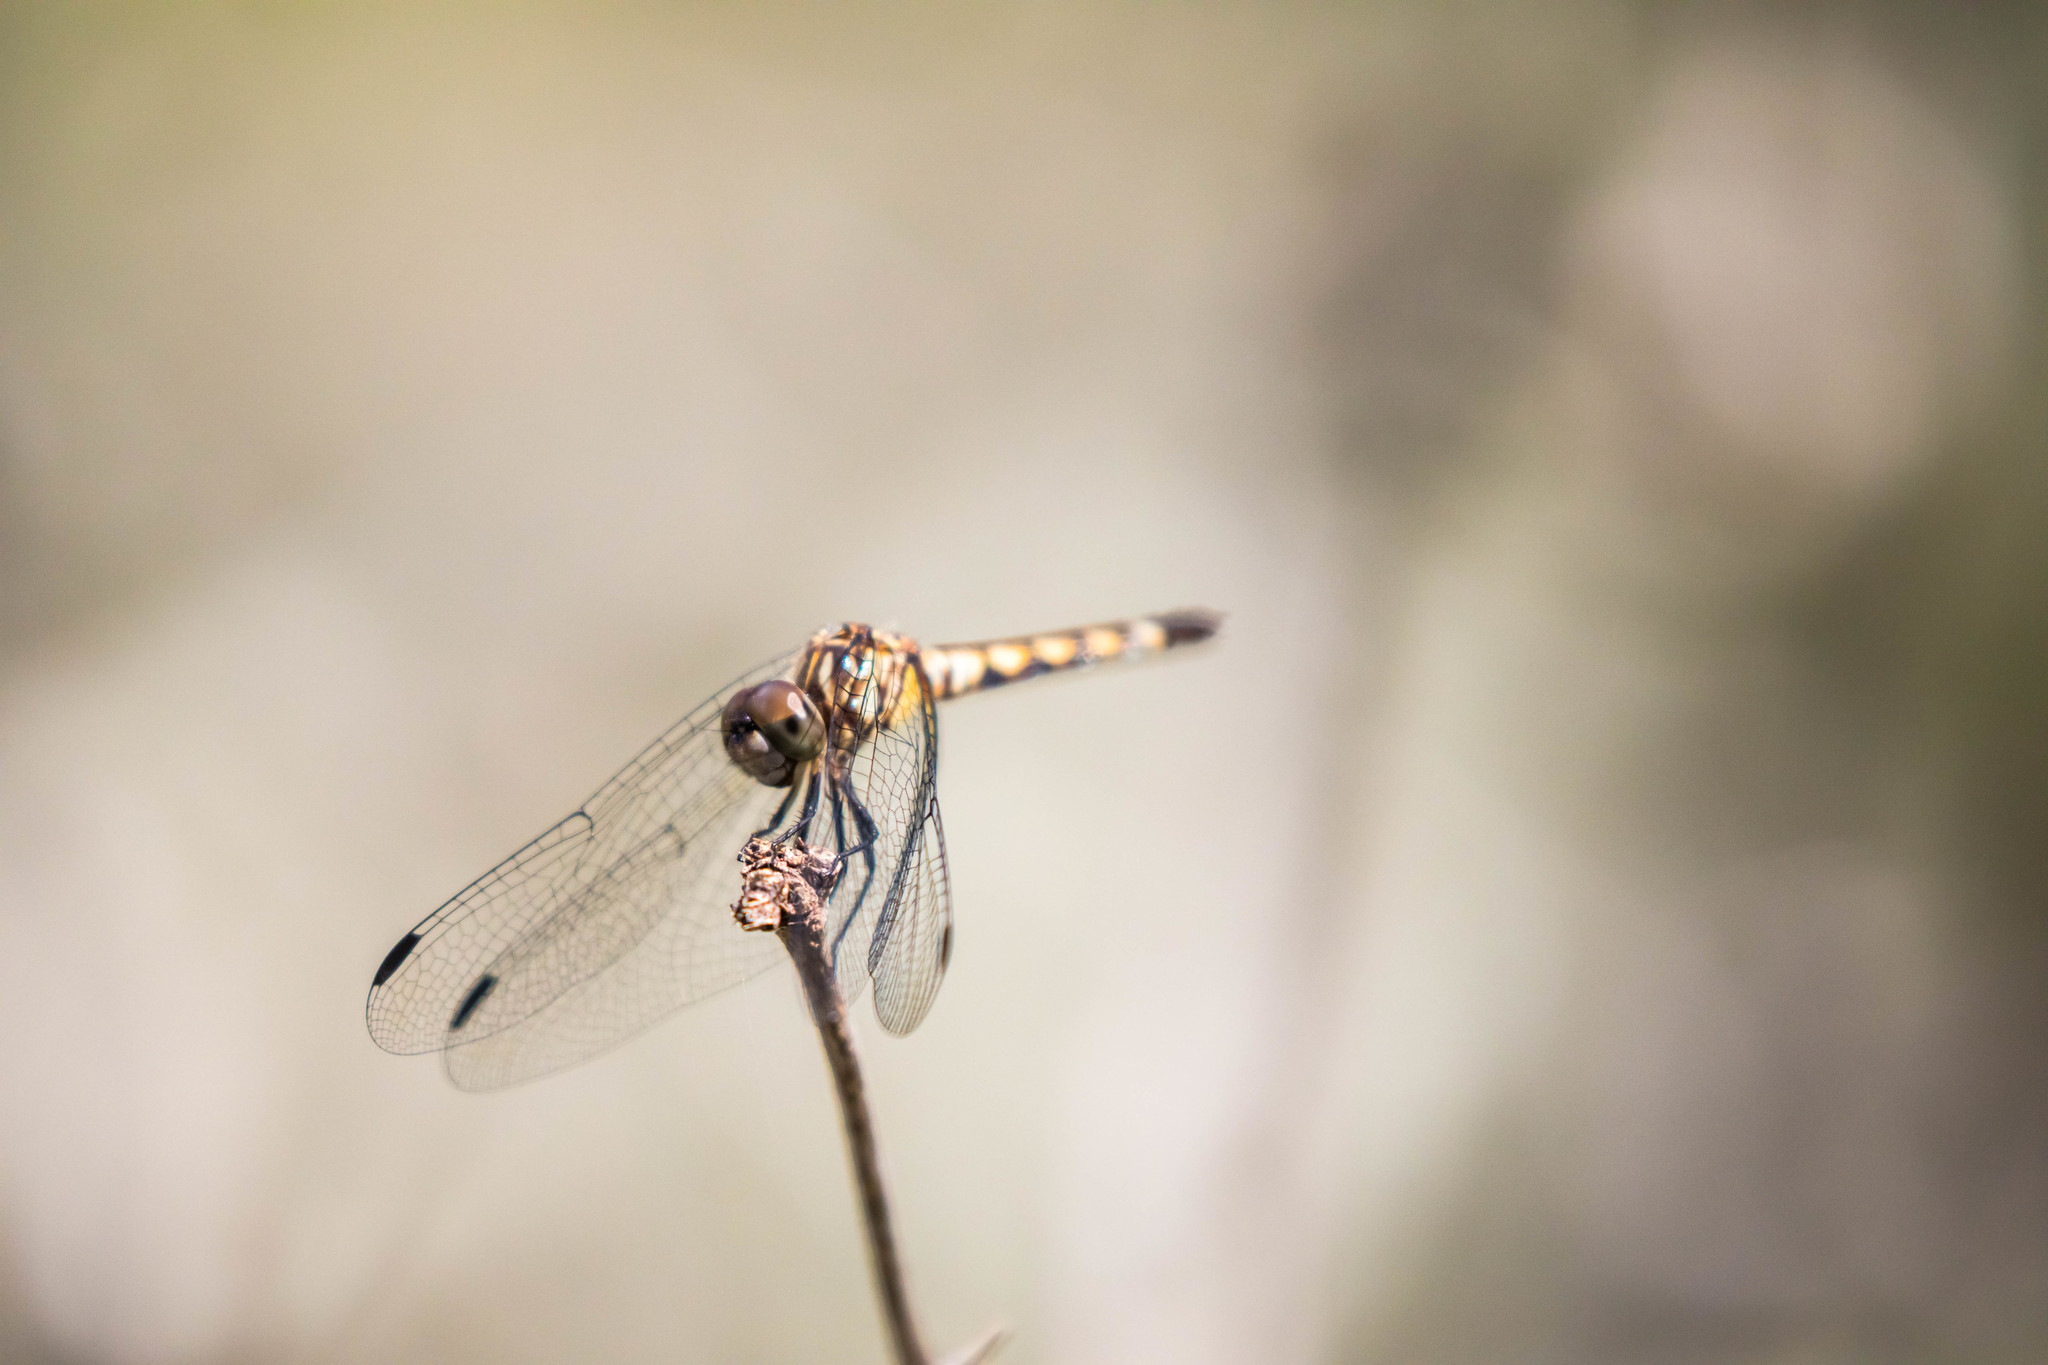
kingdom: Animalia
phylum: Arthropoda
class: Insecta
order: Odonata
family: Libellulidae
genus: Micrathyria
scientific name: Micrathyria hagenii
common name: Thornbush dasher
